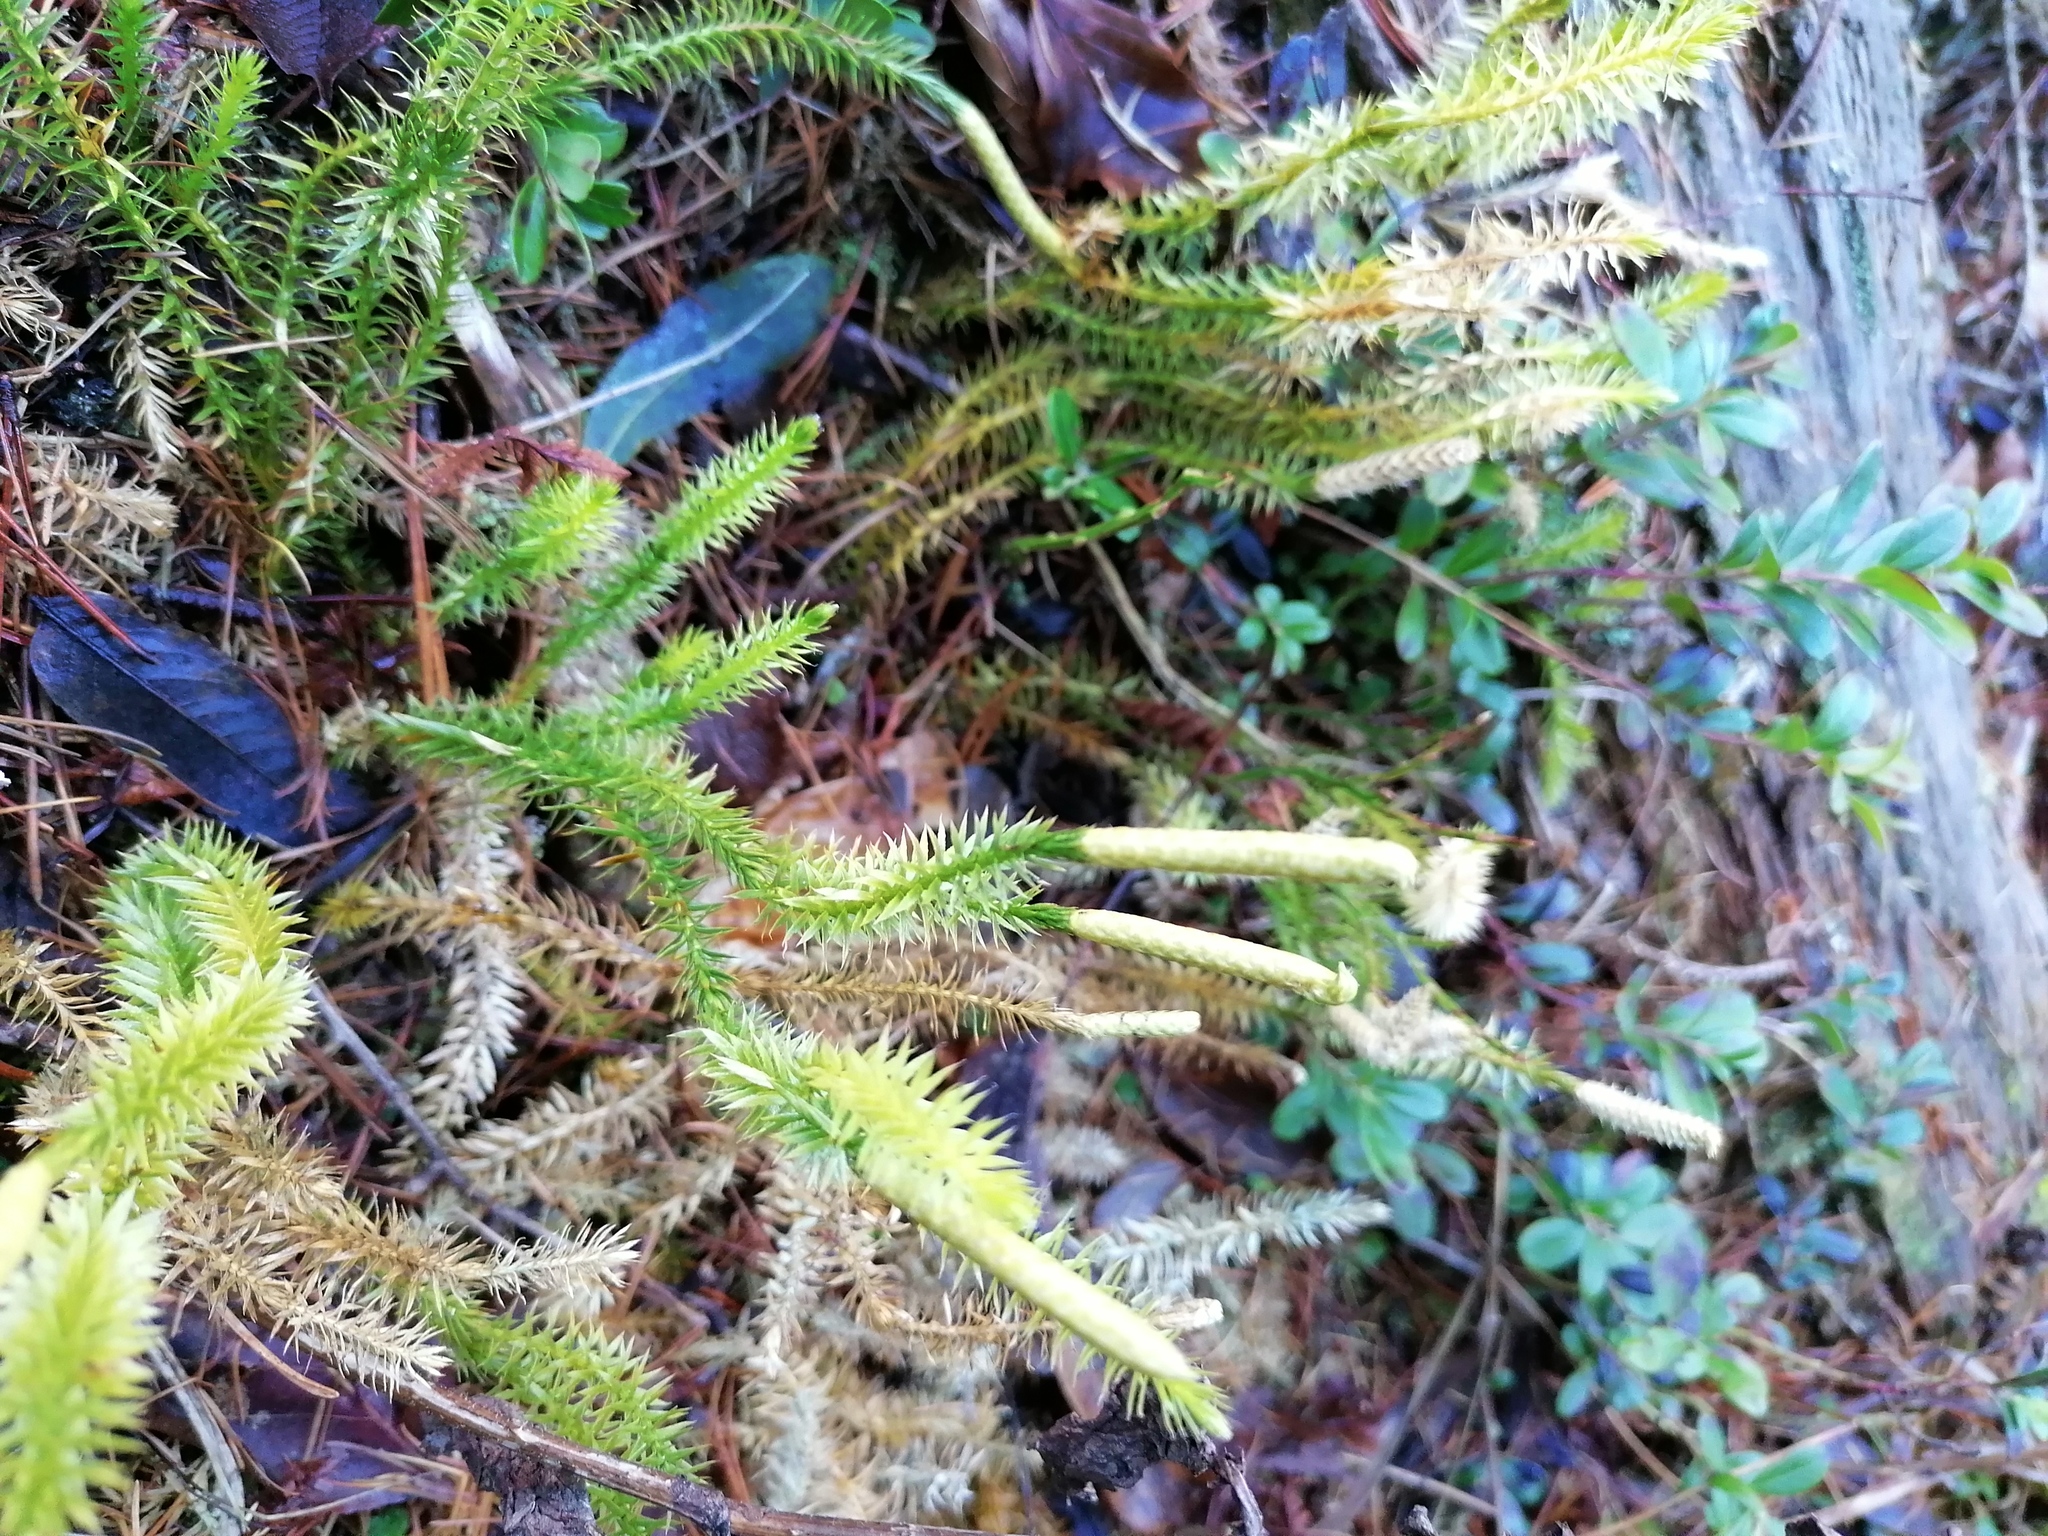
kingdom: Plantae
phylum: Tracheophyta
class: Lycopodiopsida
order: Lycopodiales
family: Lycopodiaceae
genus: Spinulum
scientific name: Spinulum annotinum
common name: Interrupted club-moss
